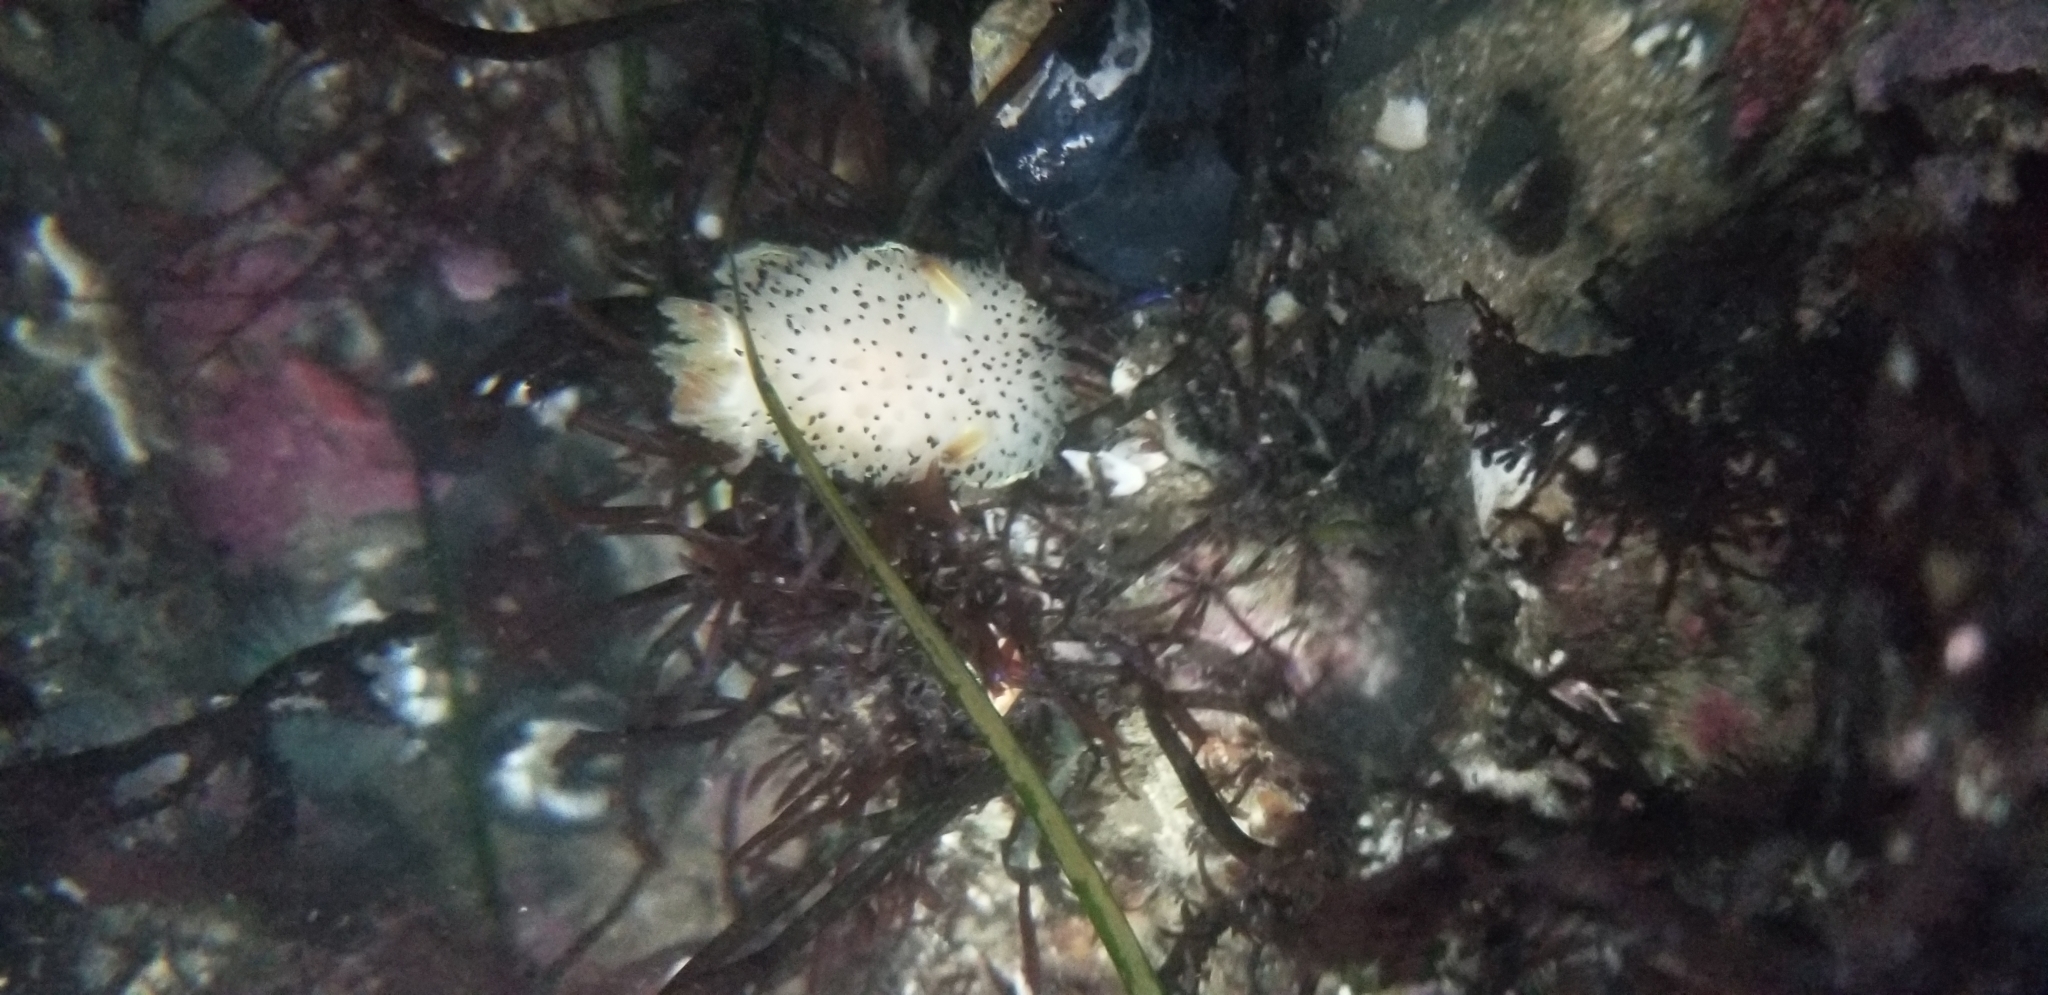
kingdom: Animalia
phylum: Mollusca
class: Gastropoda
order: Nudibranchia
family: Onchidorididae
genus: Acanthodoris
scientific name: Acanthodoris rhodoceras
